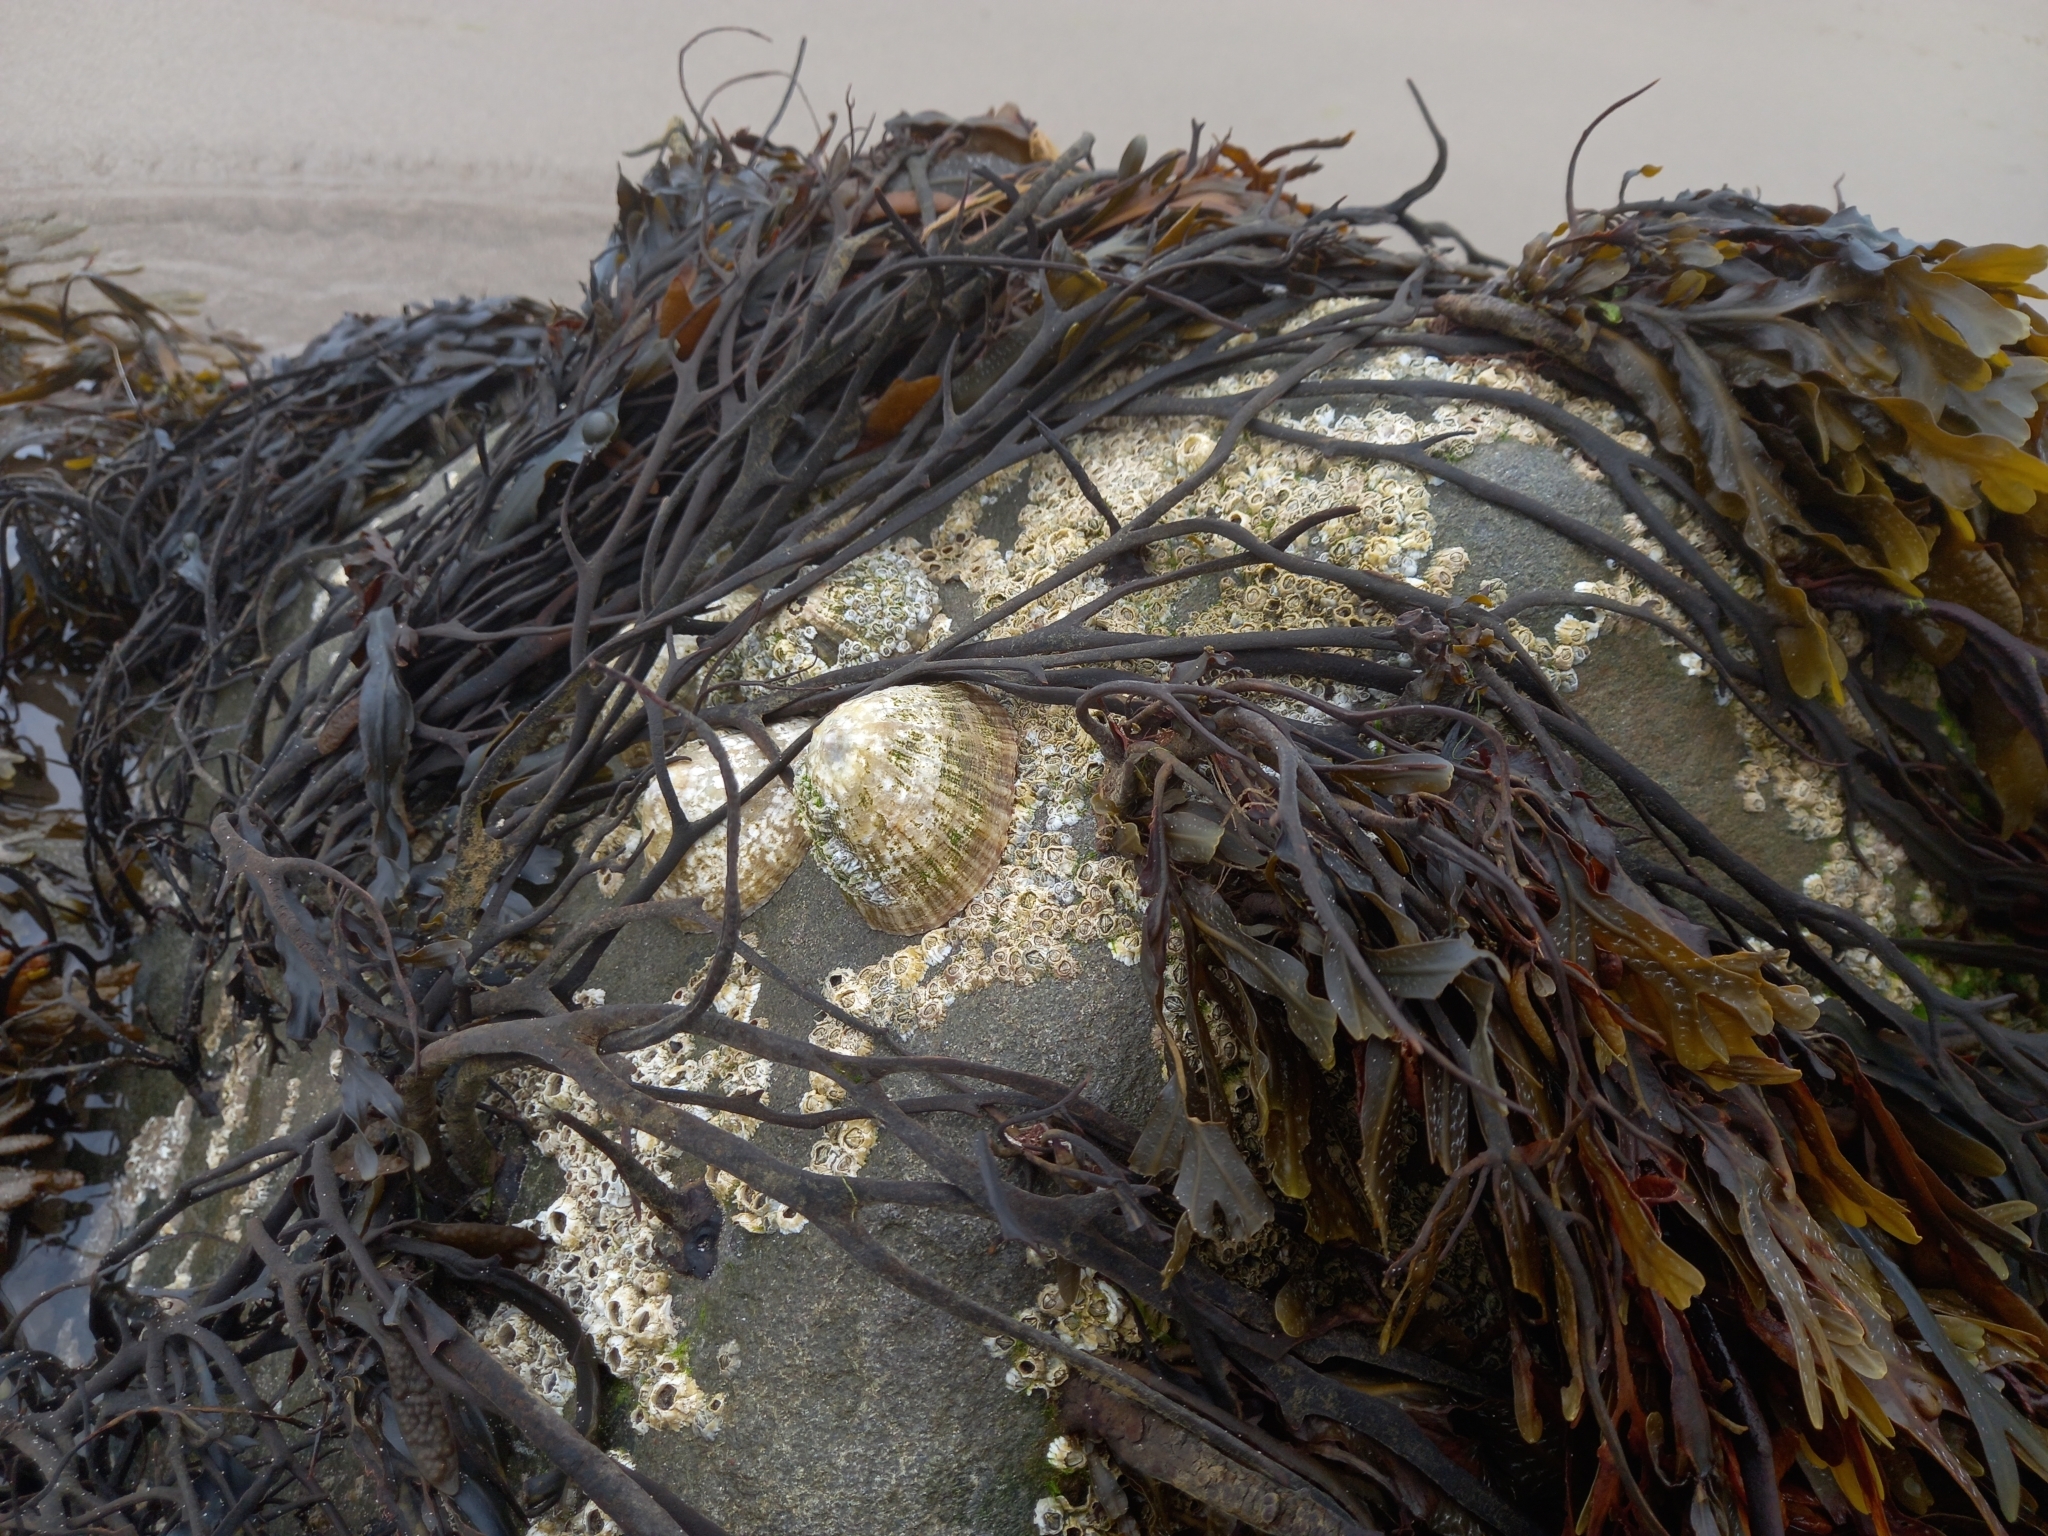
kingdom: Animalia
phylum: Mollusca
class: Gastropoda
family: Patellidae
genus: Patella
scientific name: Patella vulgata
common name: Common limpet
